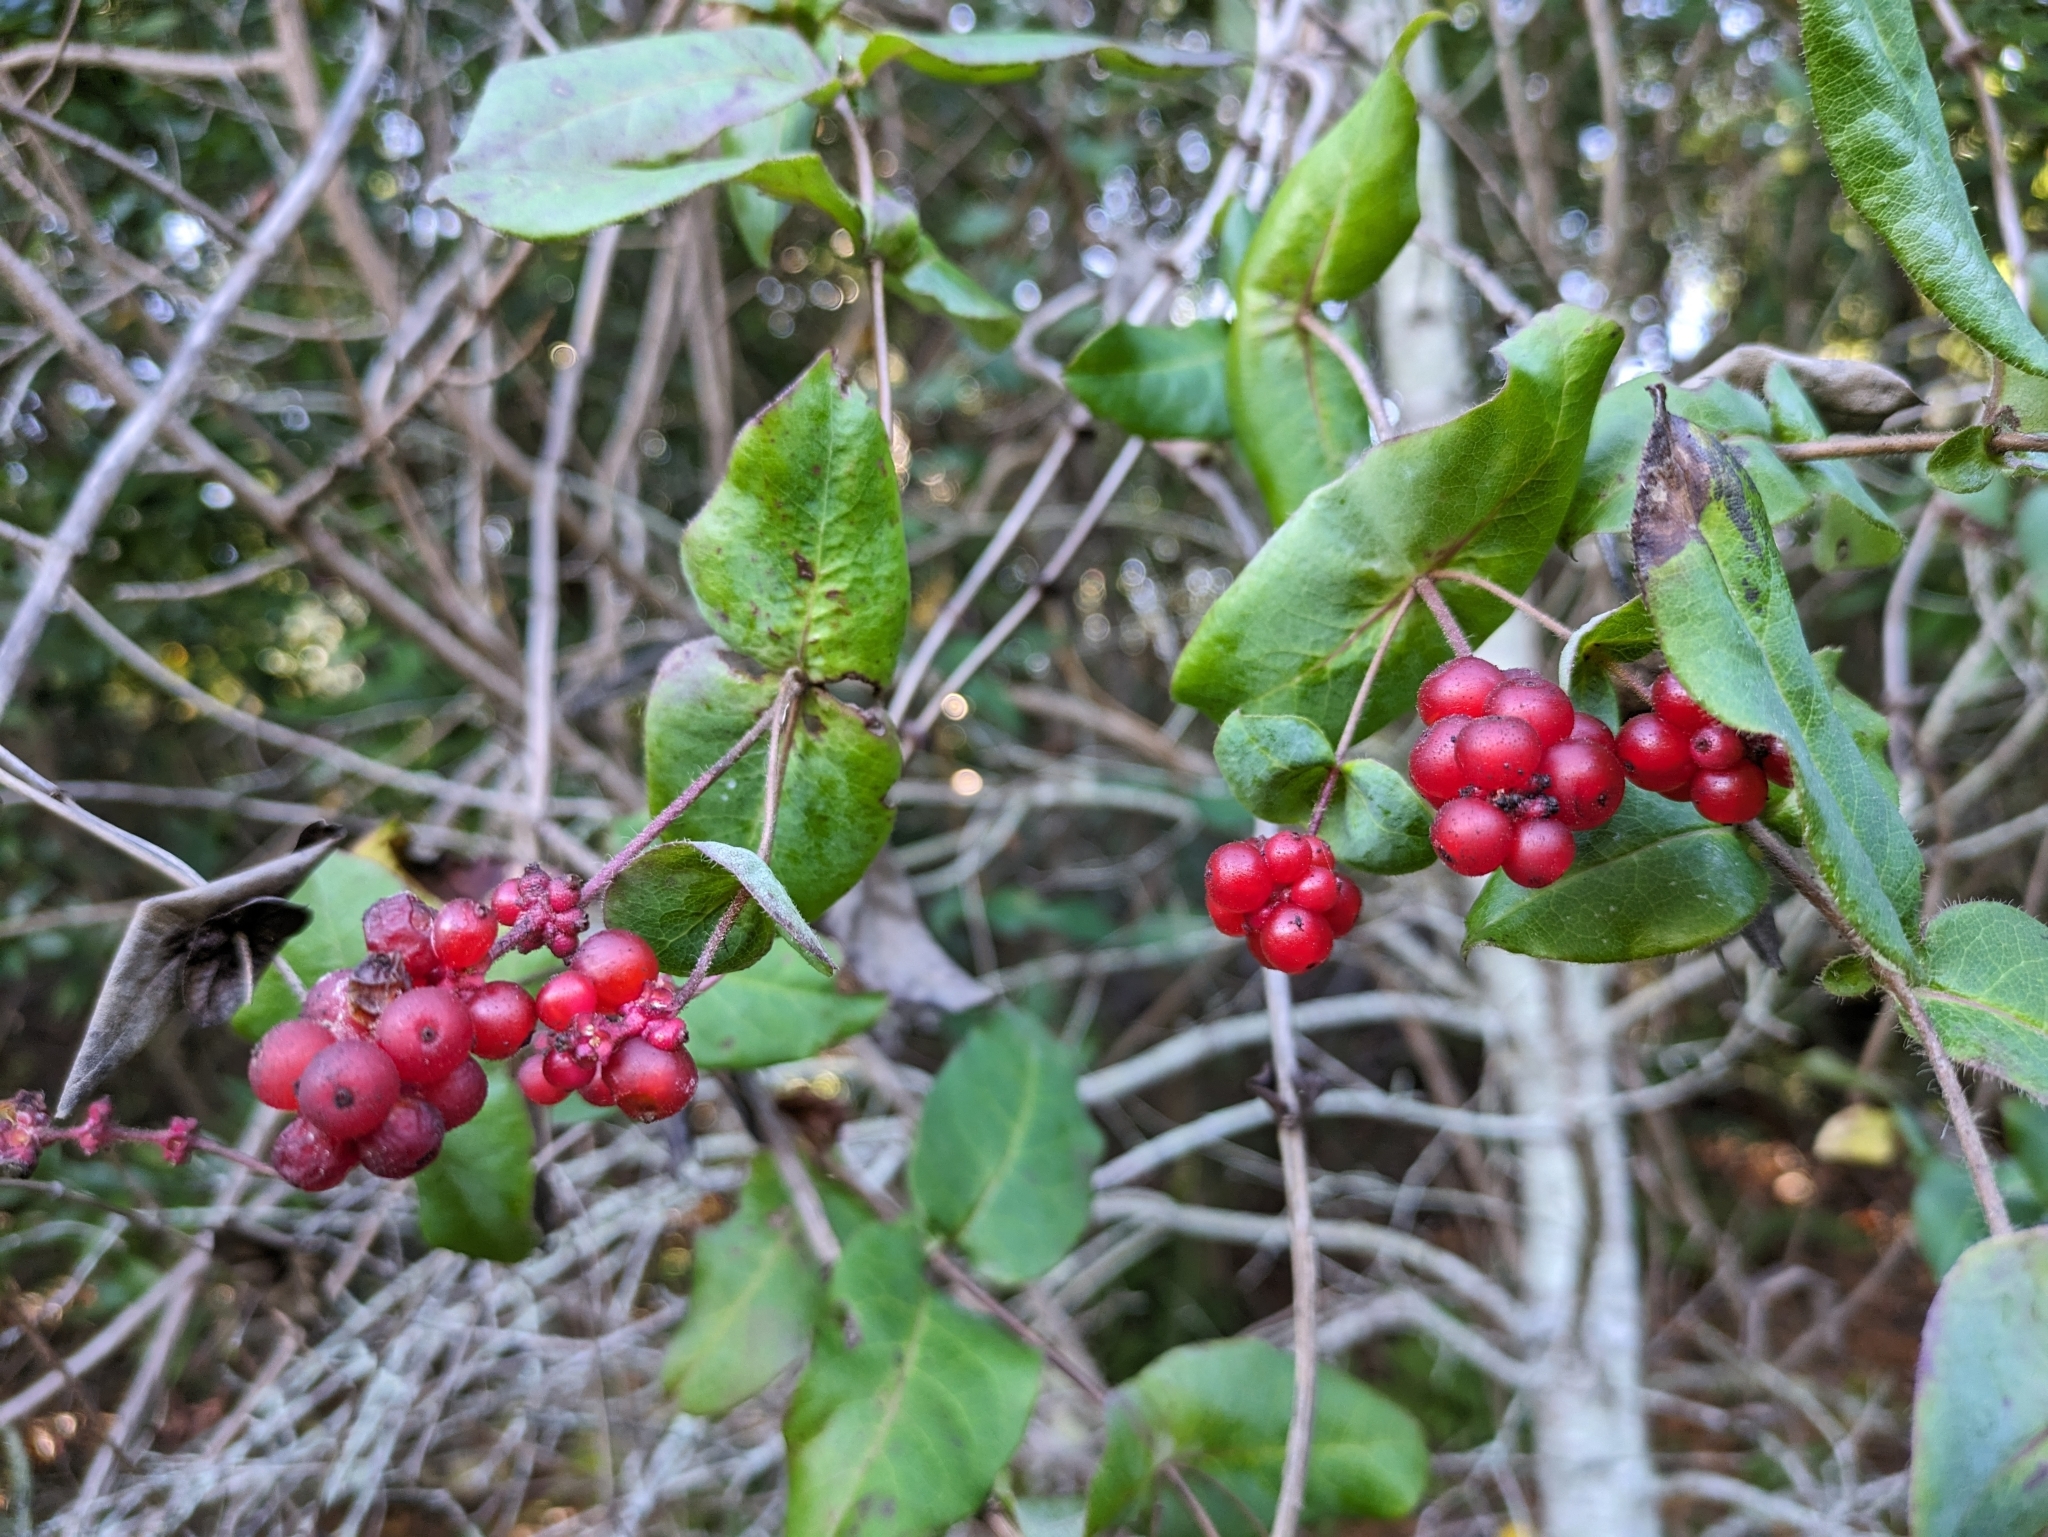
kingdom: Plantae
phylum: Tracheophyta
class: Magnoliopsida
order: Dipsacales
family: Caprifoliaceae
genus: Lonicera
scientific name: Lonicera hispidula
